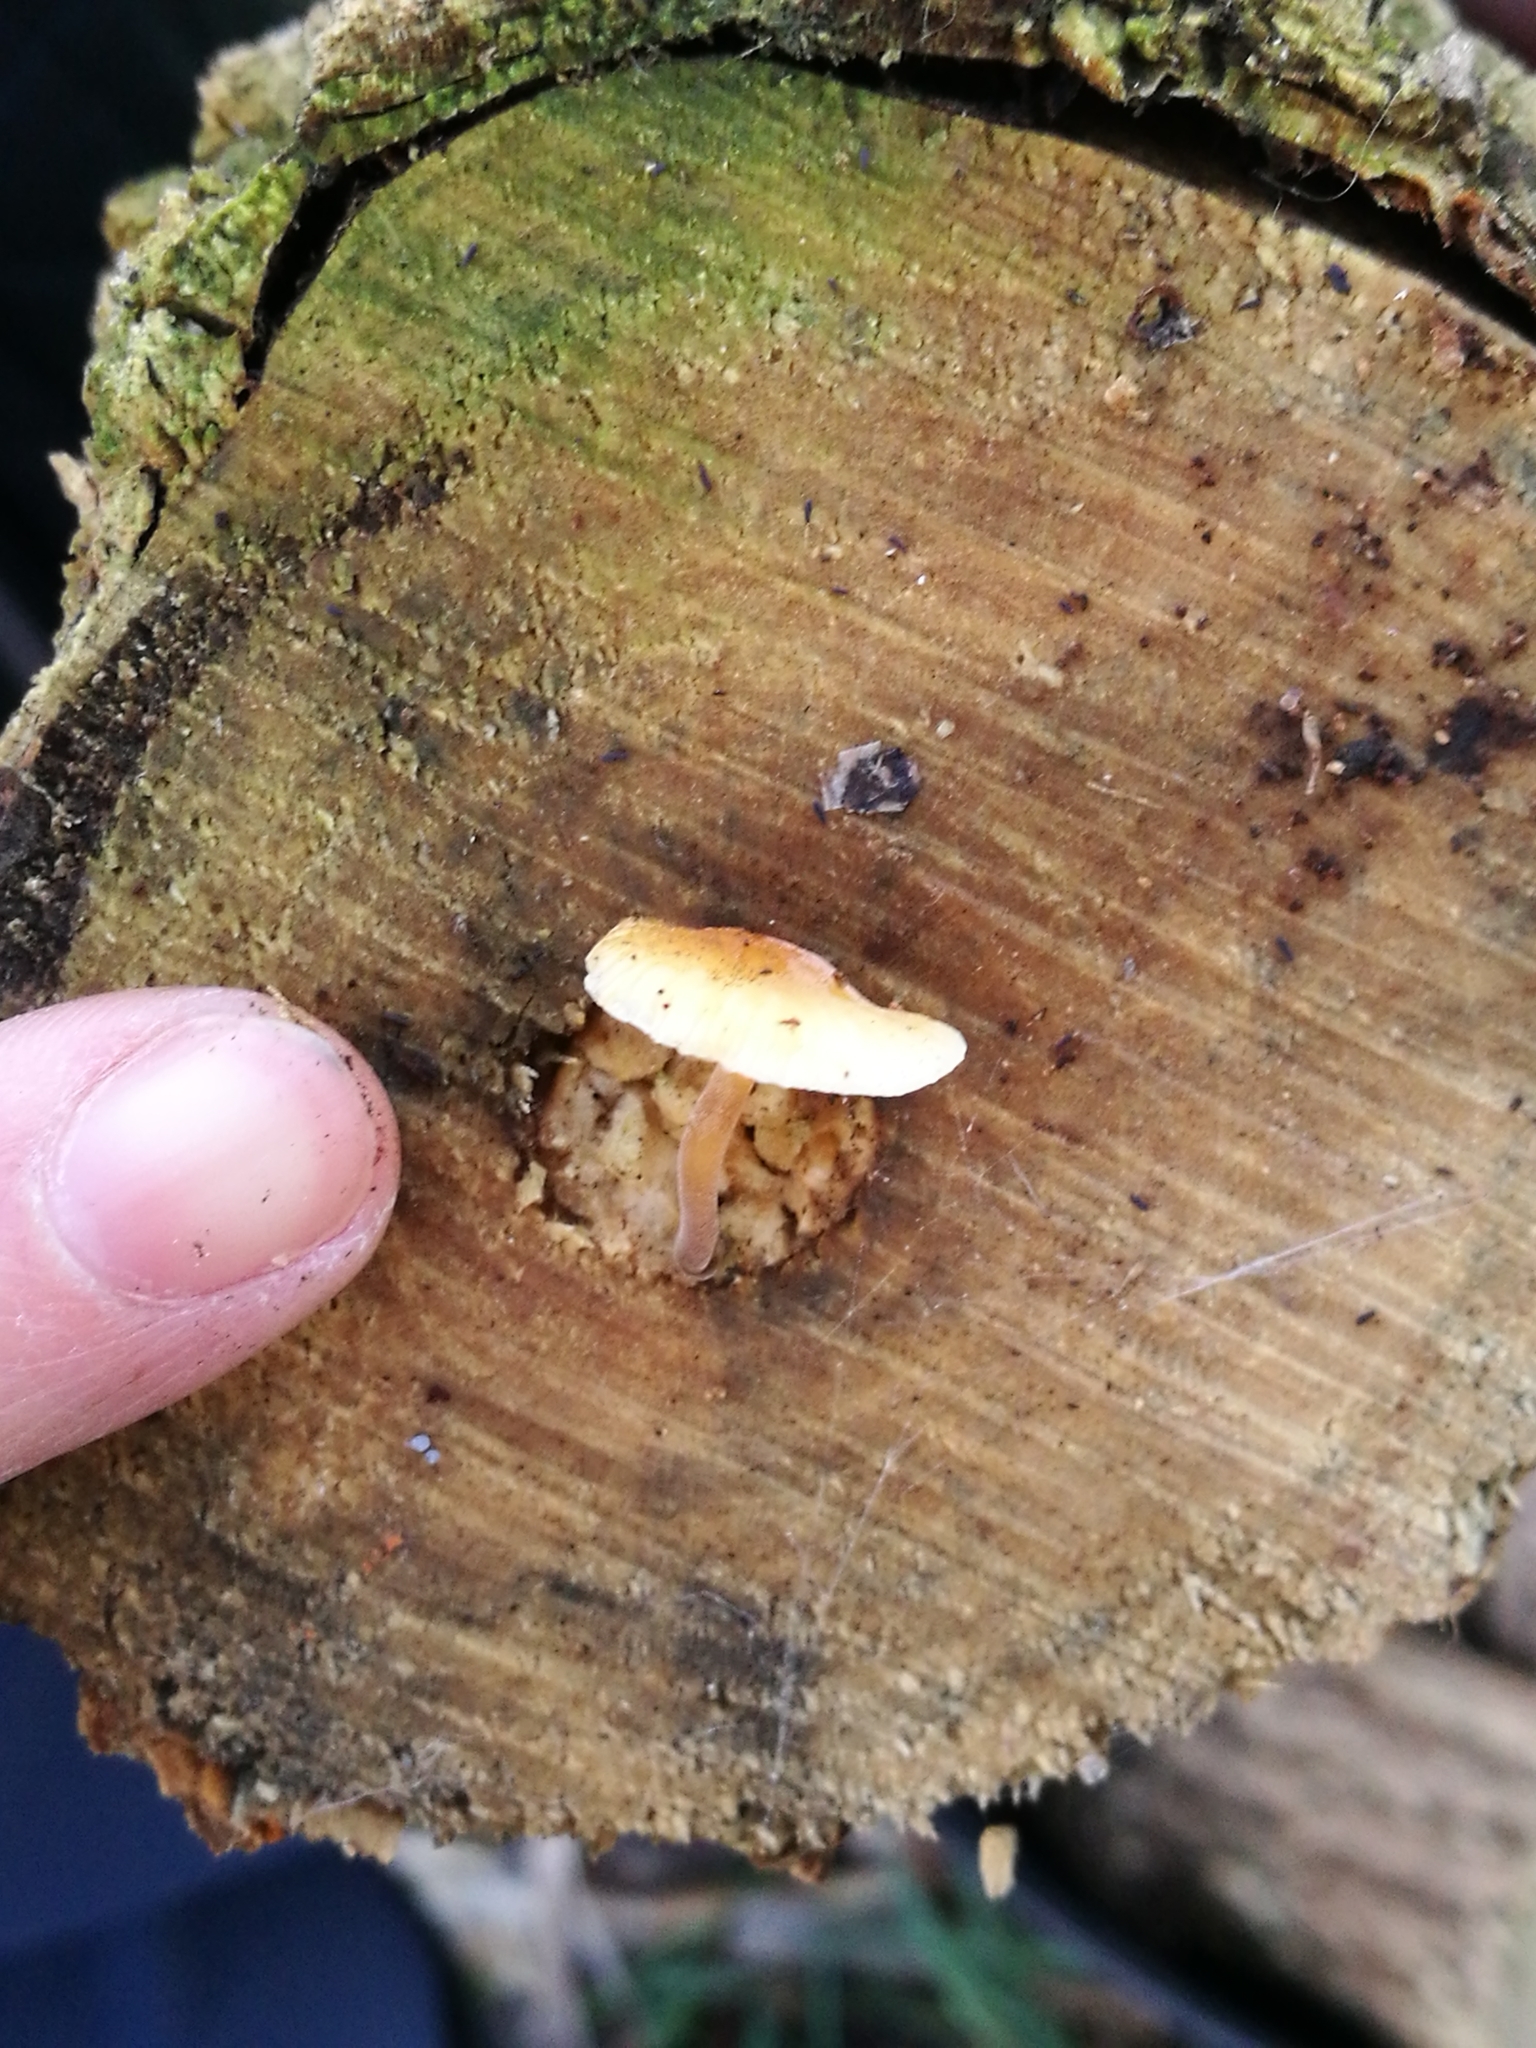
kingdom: Fungi
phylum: Basidiomycota
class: Agaricomycetes
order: Agaricales
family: Physalacriaceae
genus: Flammulina
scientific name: Flammulina velutipes
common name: Velvet shank
